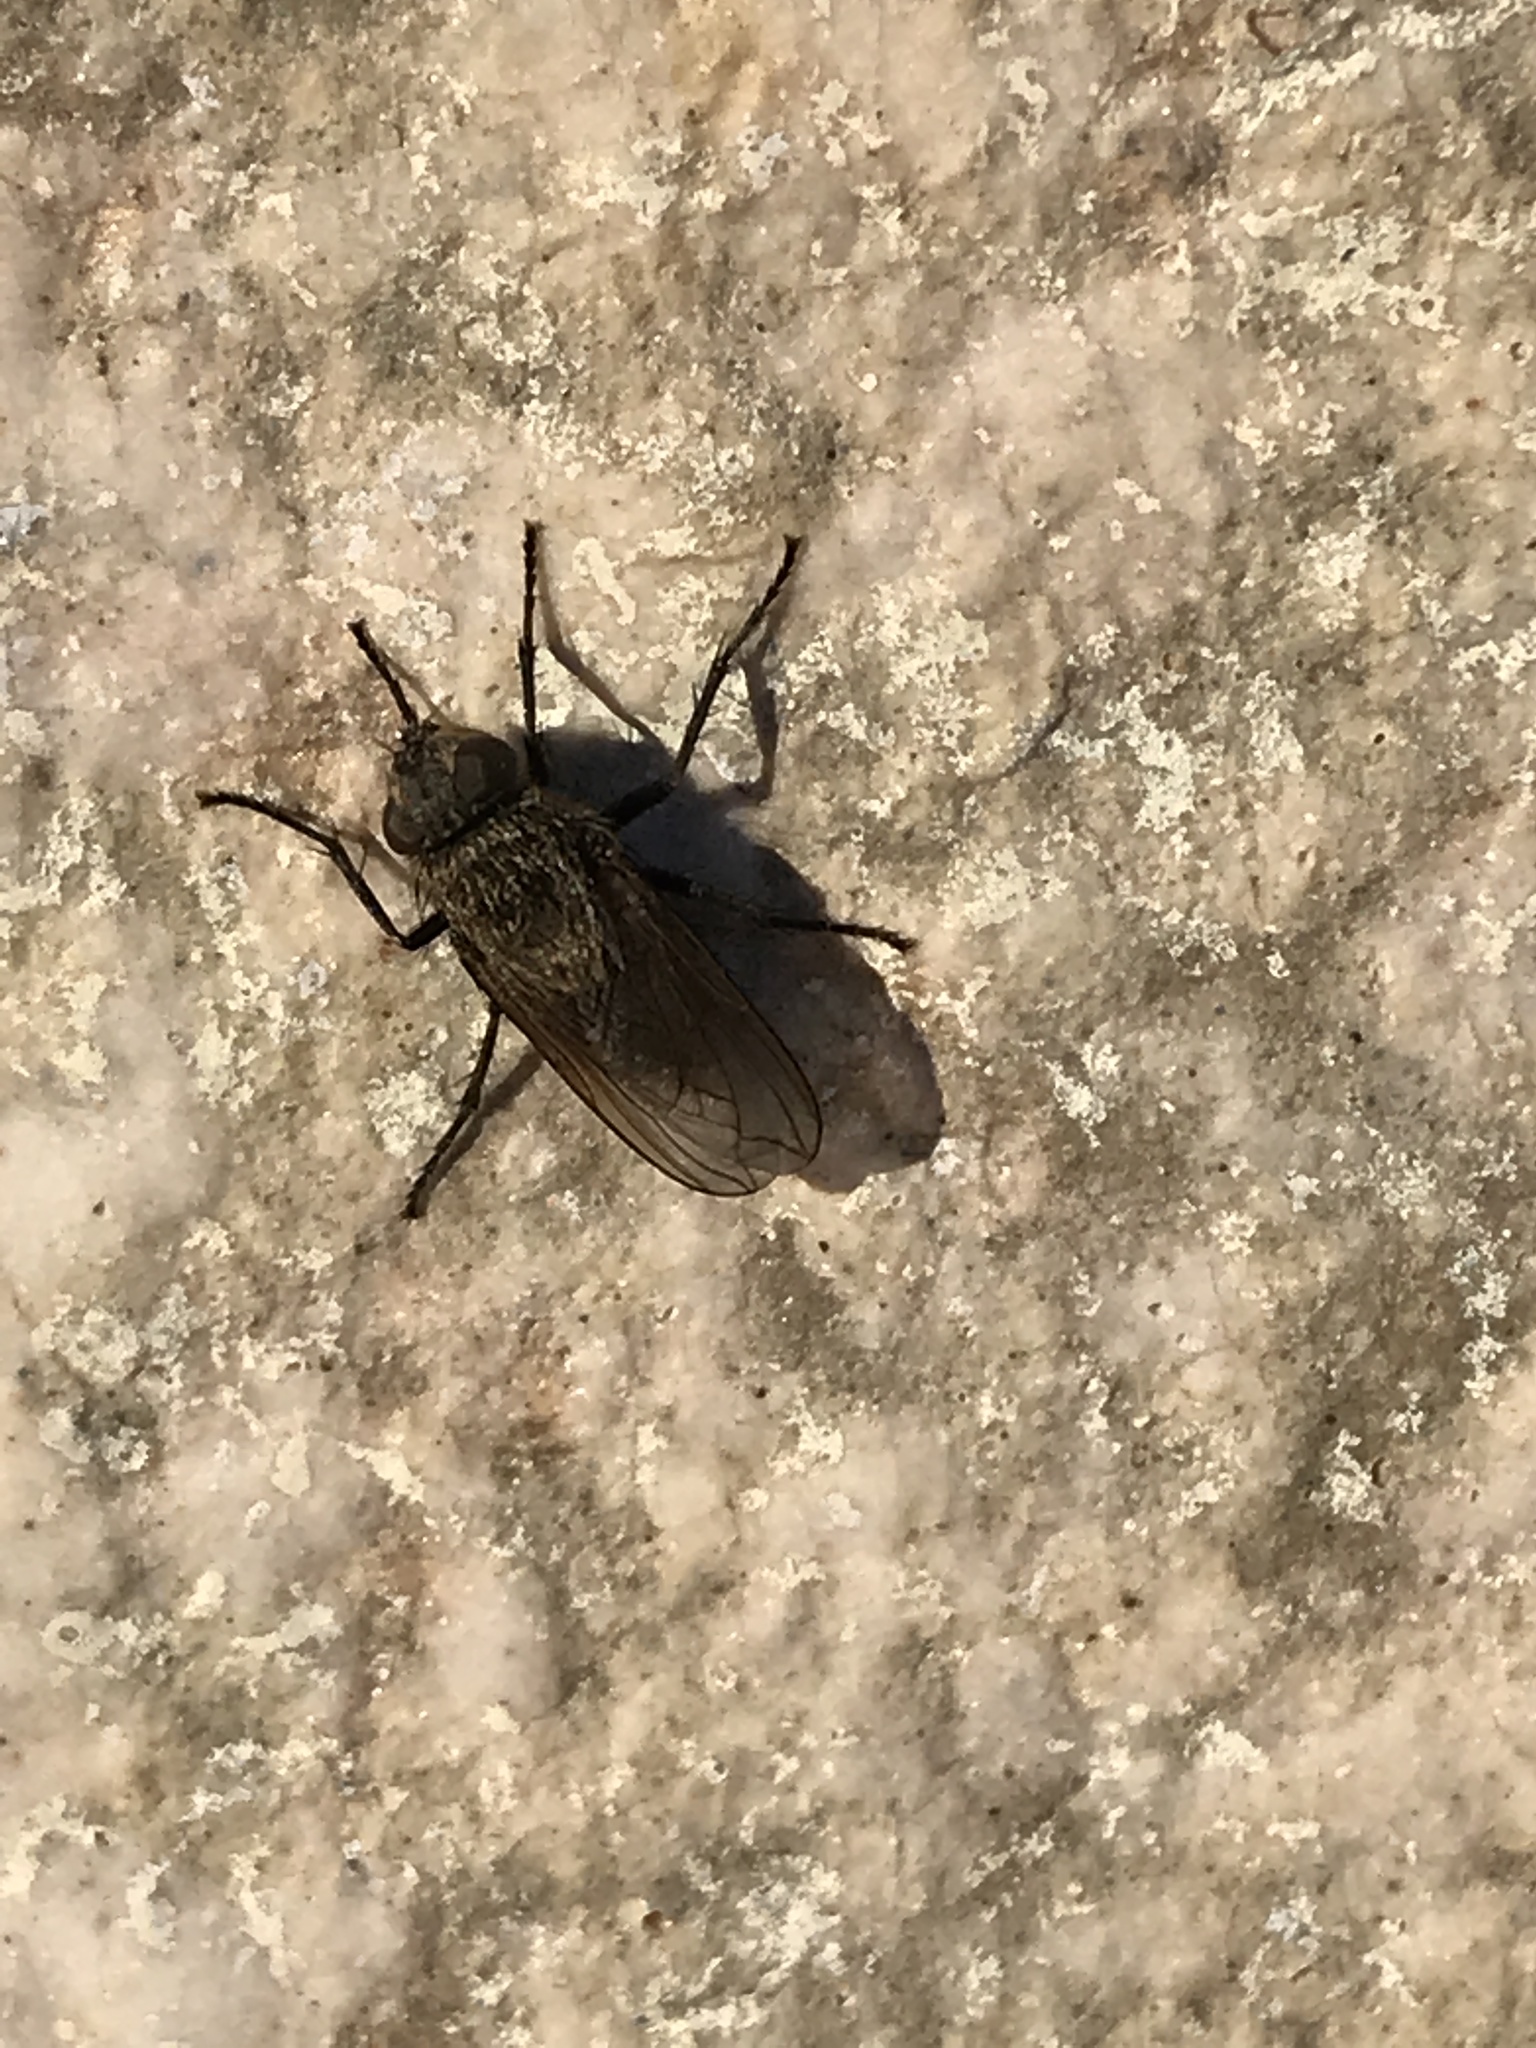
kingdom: Animalia
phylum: Arthropoda
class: Insecta
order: Diptera
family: Polleniidae
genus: Pollenia
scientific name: Pollenia
